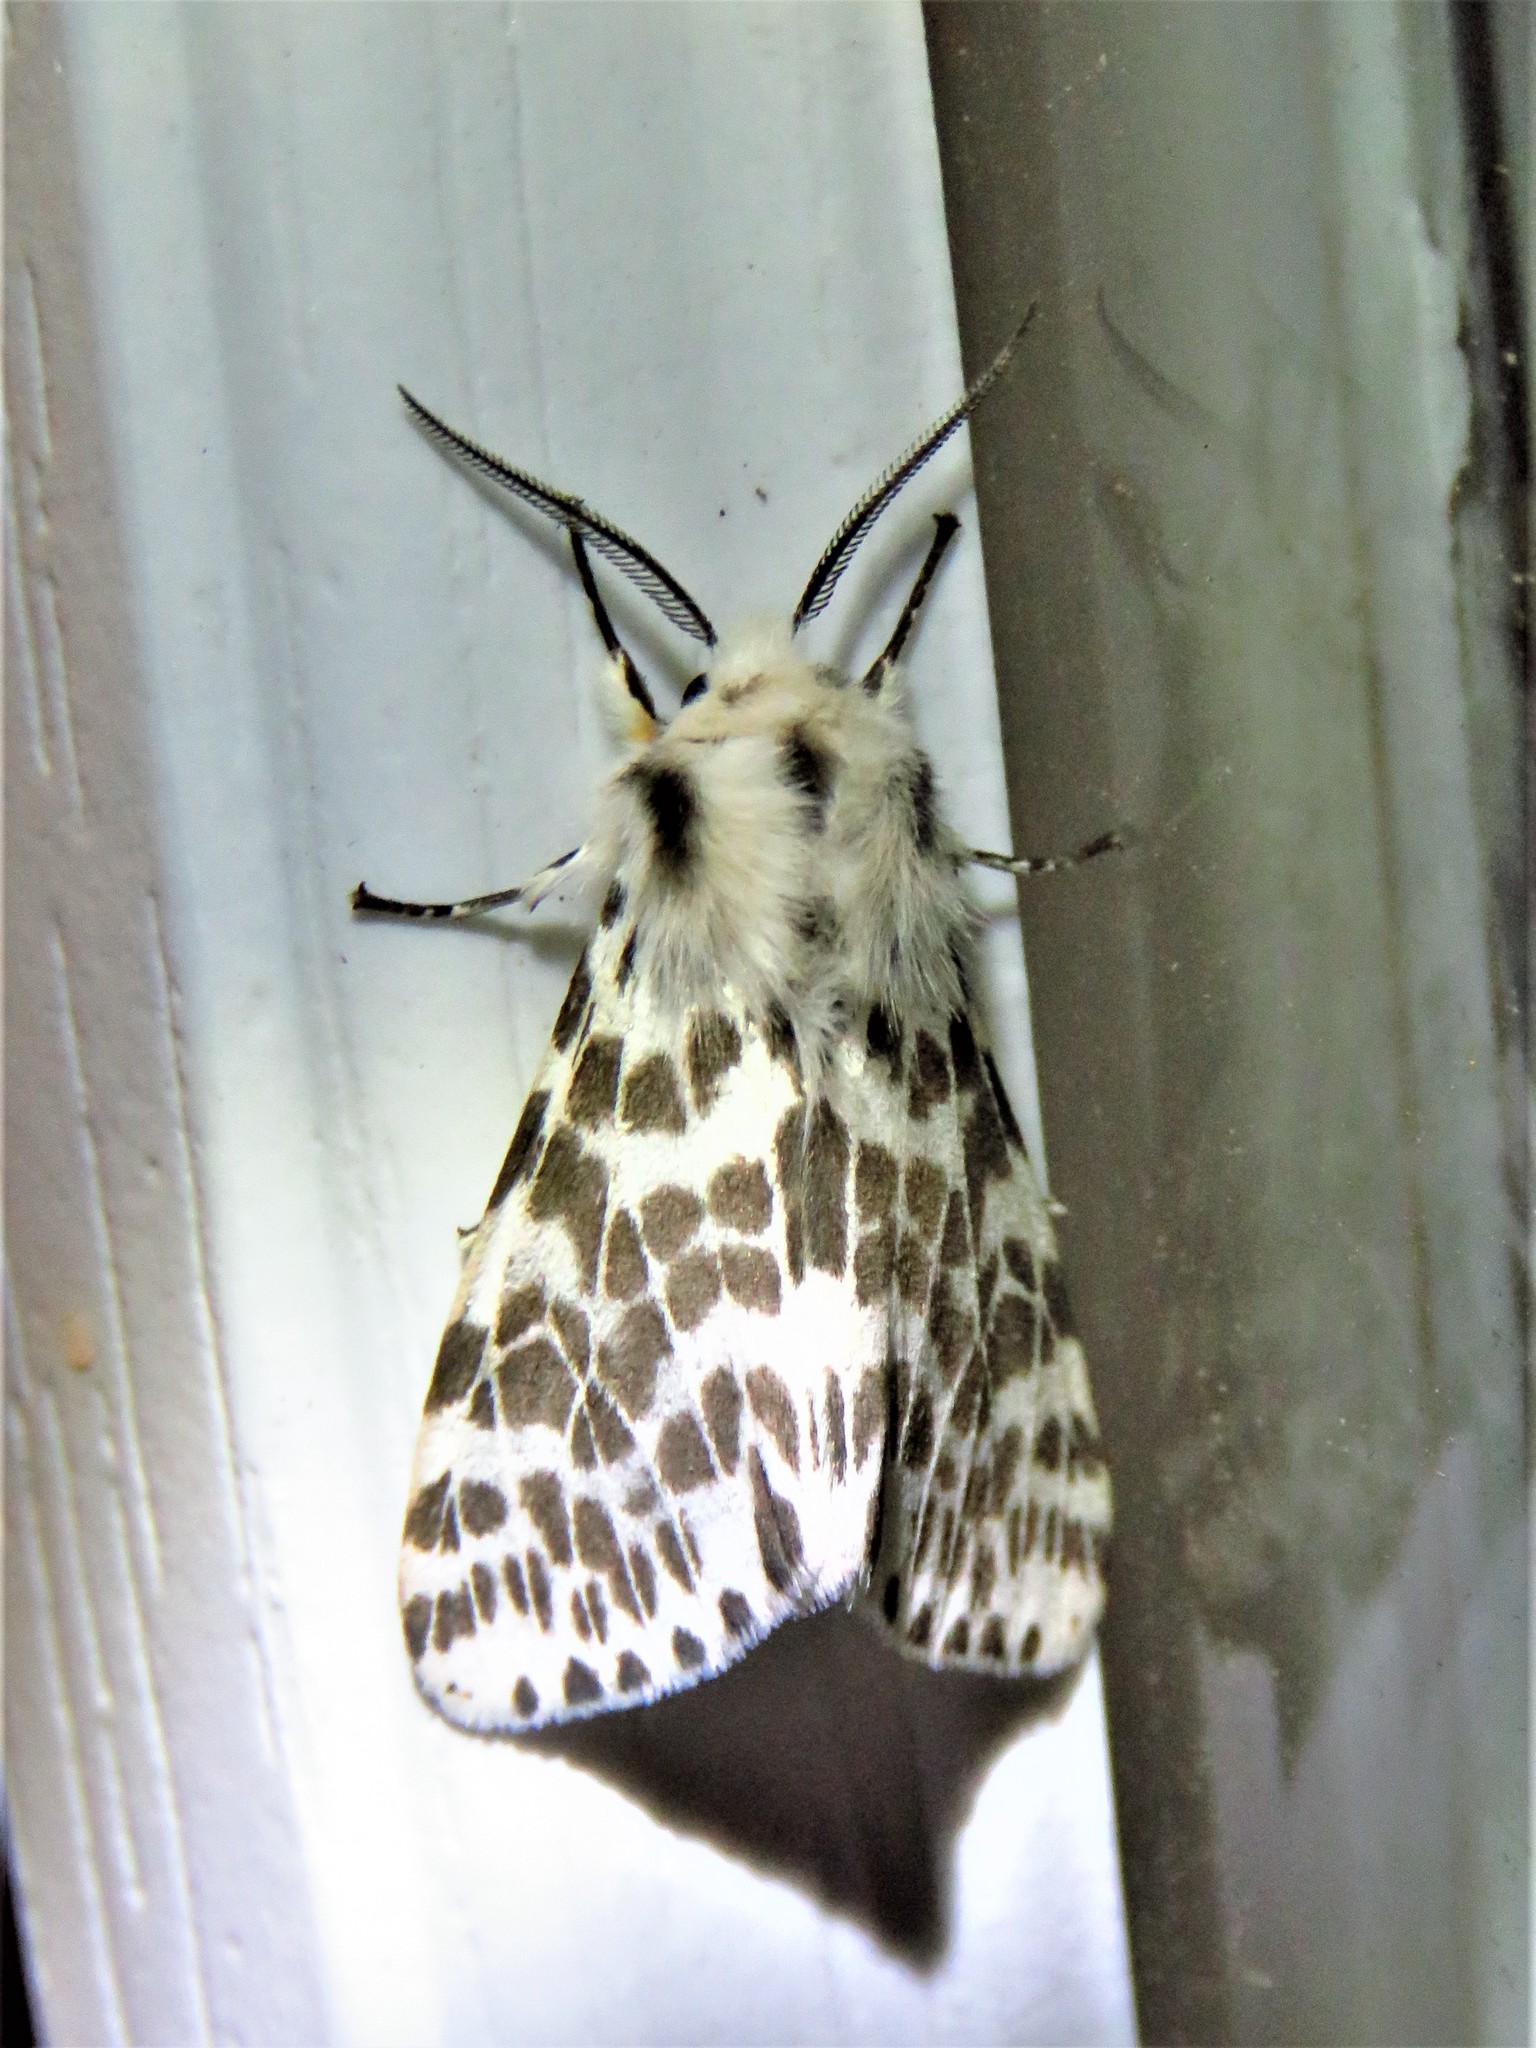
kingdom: Animalia
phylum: Arthropoda
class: Insecta
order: Lepidoptera
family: Erebidae
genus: Hyphantria
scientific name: Hyphantria cunea
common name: American white moth
